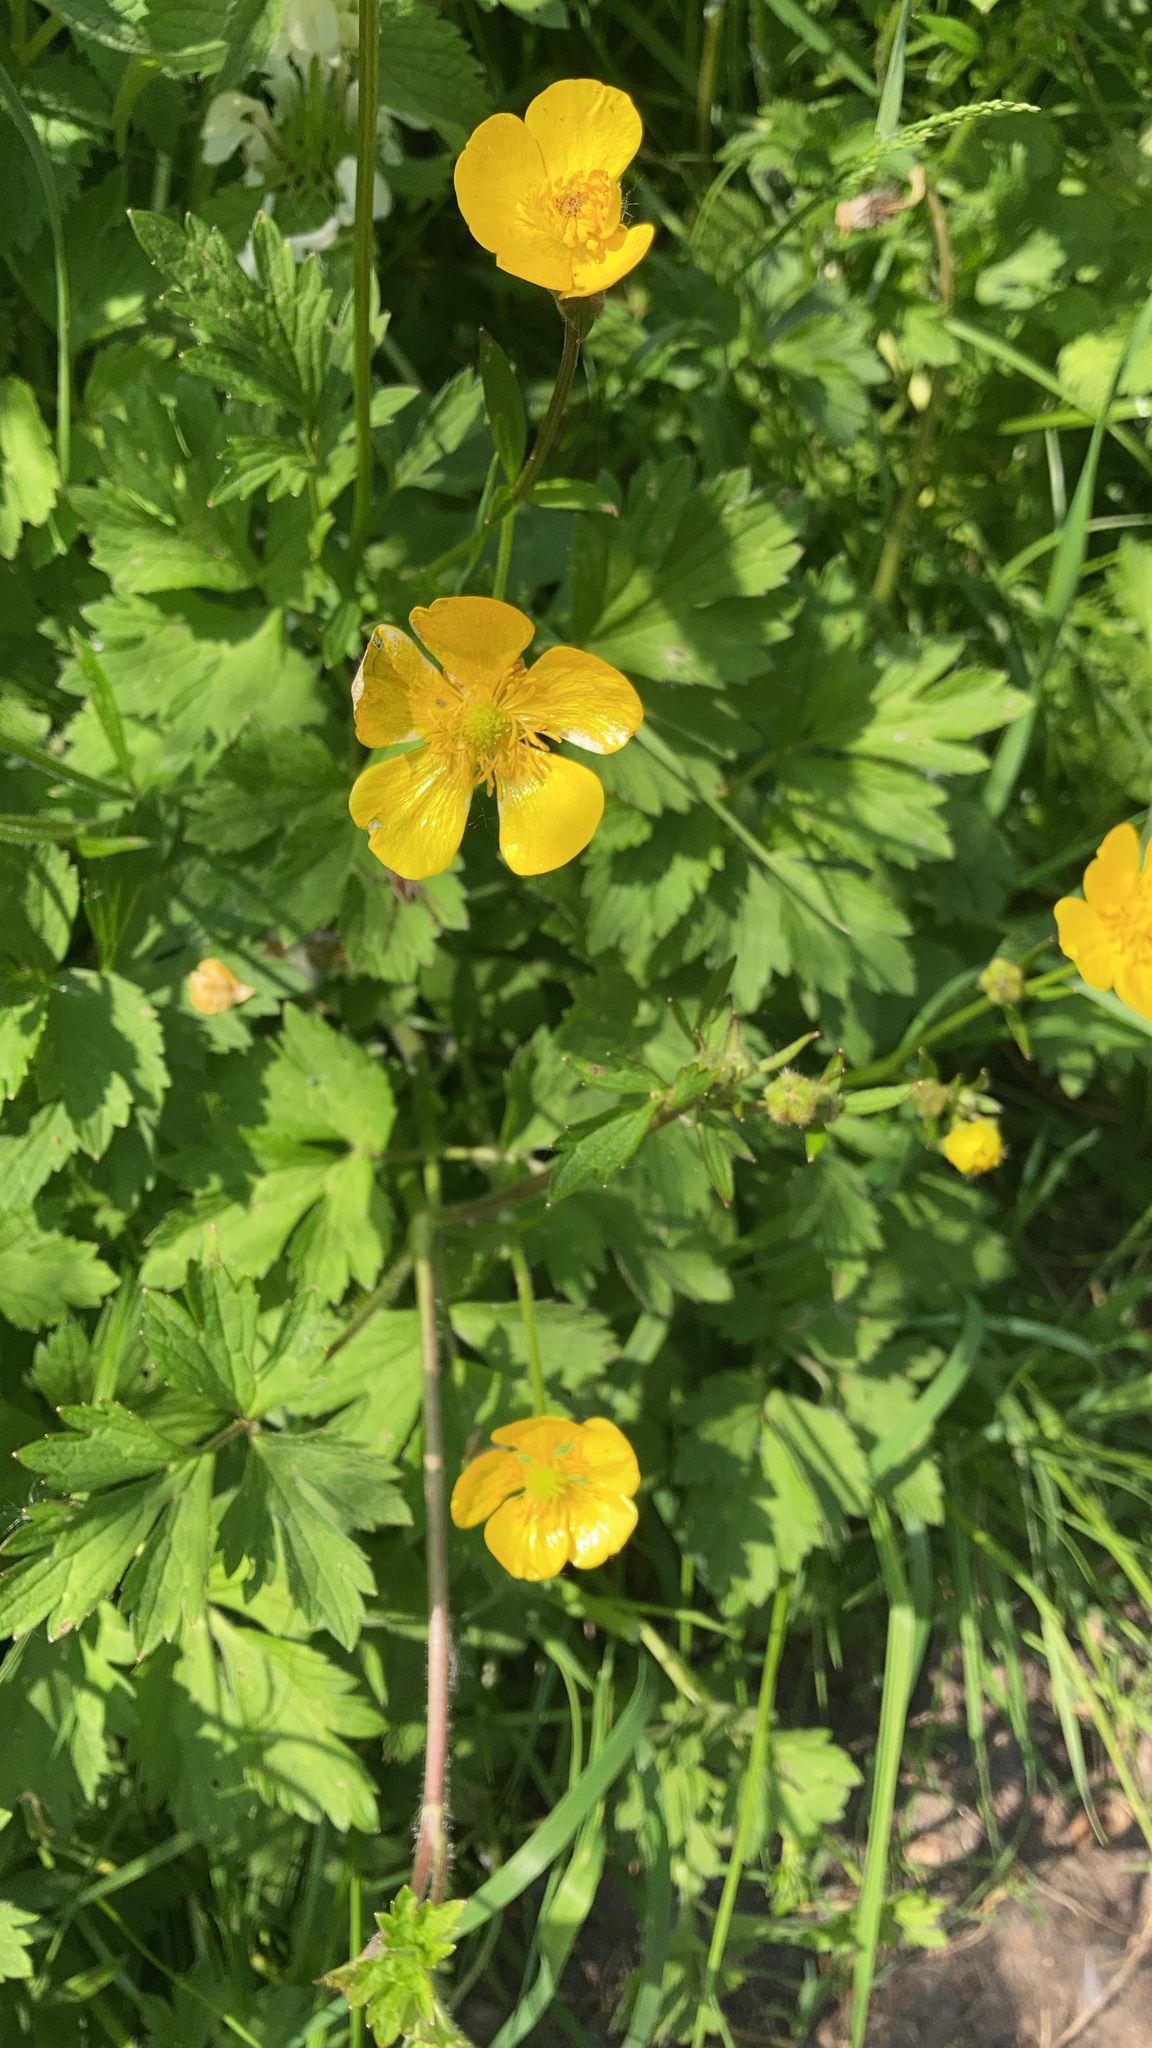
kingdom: Plantae
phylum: Tracheophyta
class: Magnoliopsida
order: Ranunculales
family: Ranunculaceae
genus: Ranunculus
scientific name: Ranunculus repens
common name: Creeping buttercup
